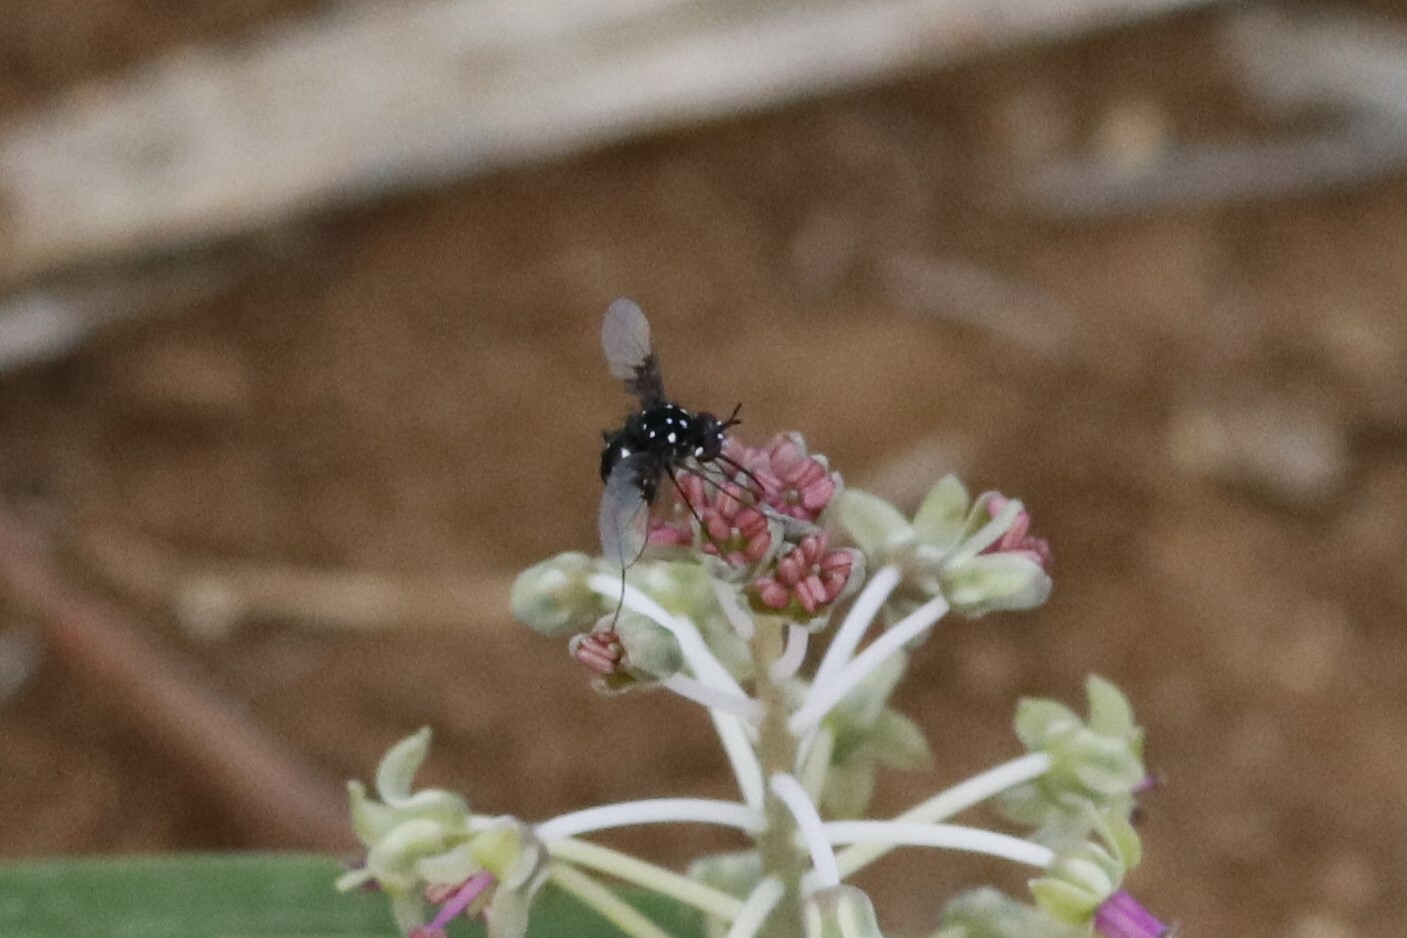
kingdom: Animalia
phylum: Arthropoda
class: Insecta
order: Diptera
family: Bombyliidae
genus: Bombylella
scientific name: Bombylella delicata
